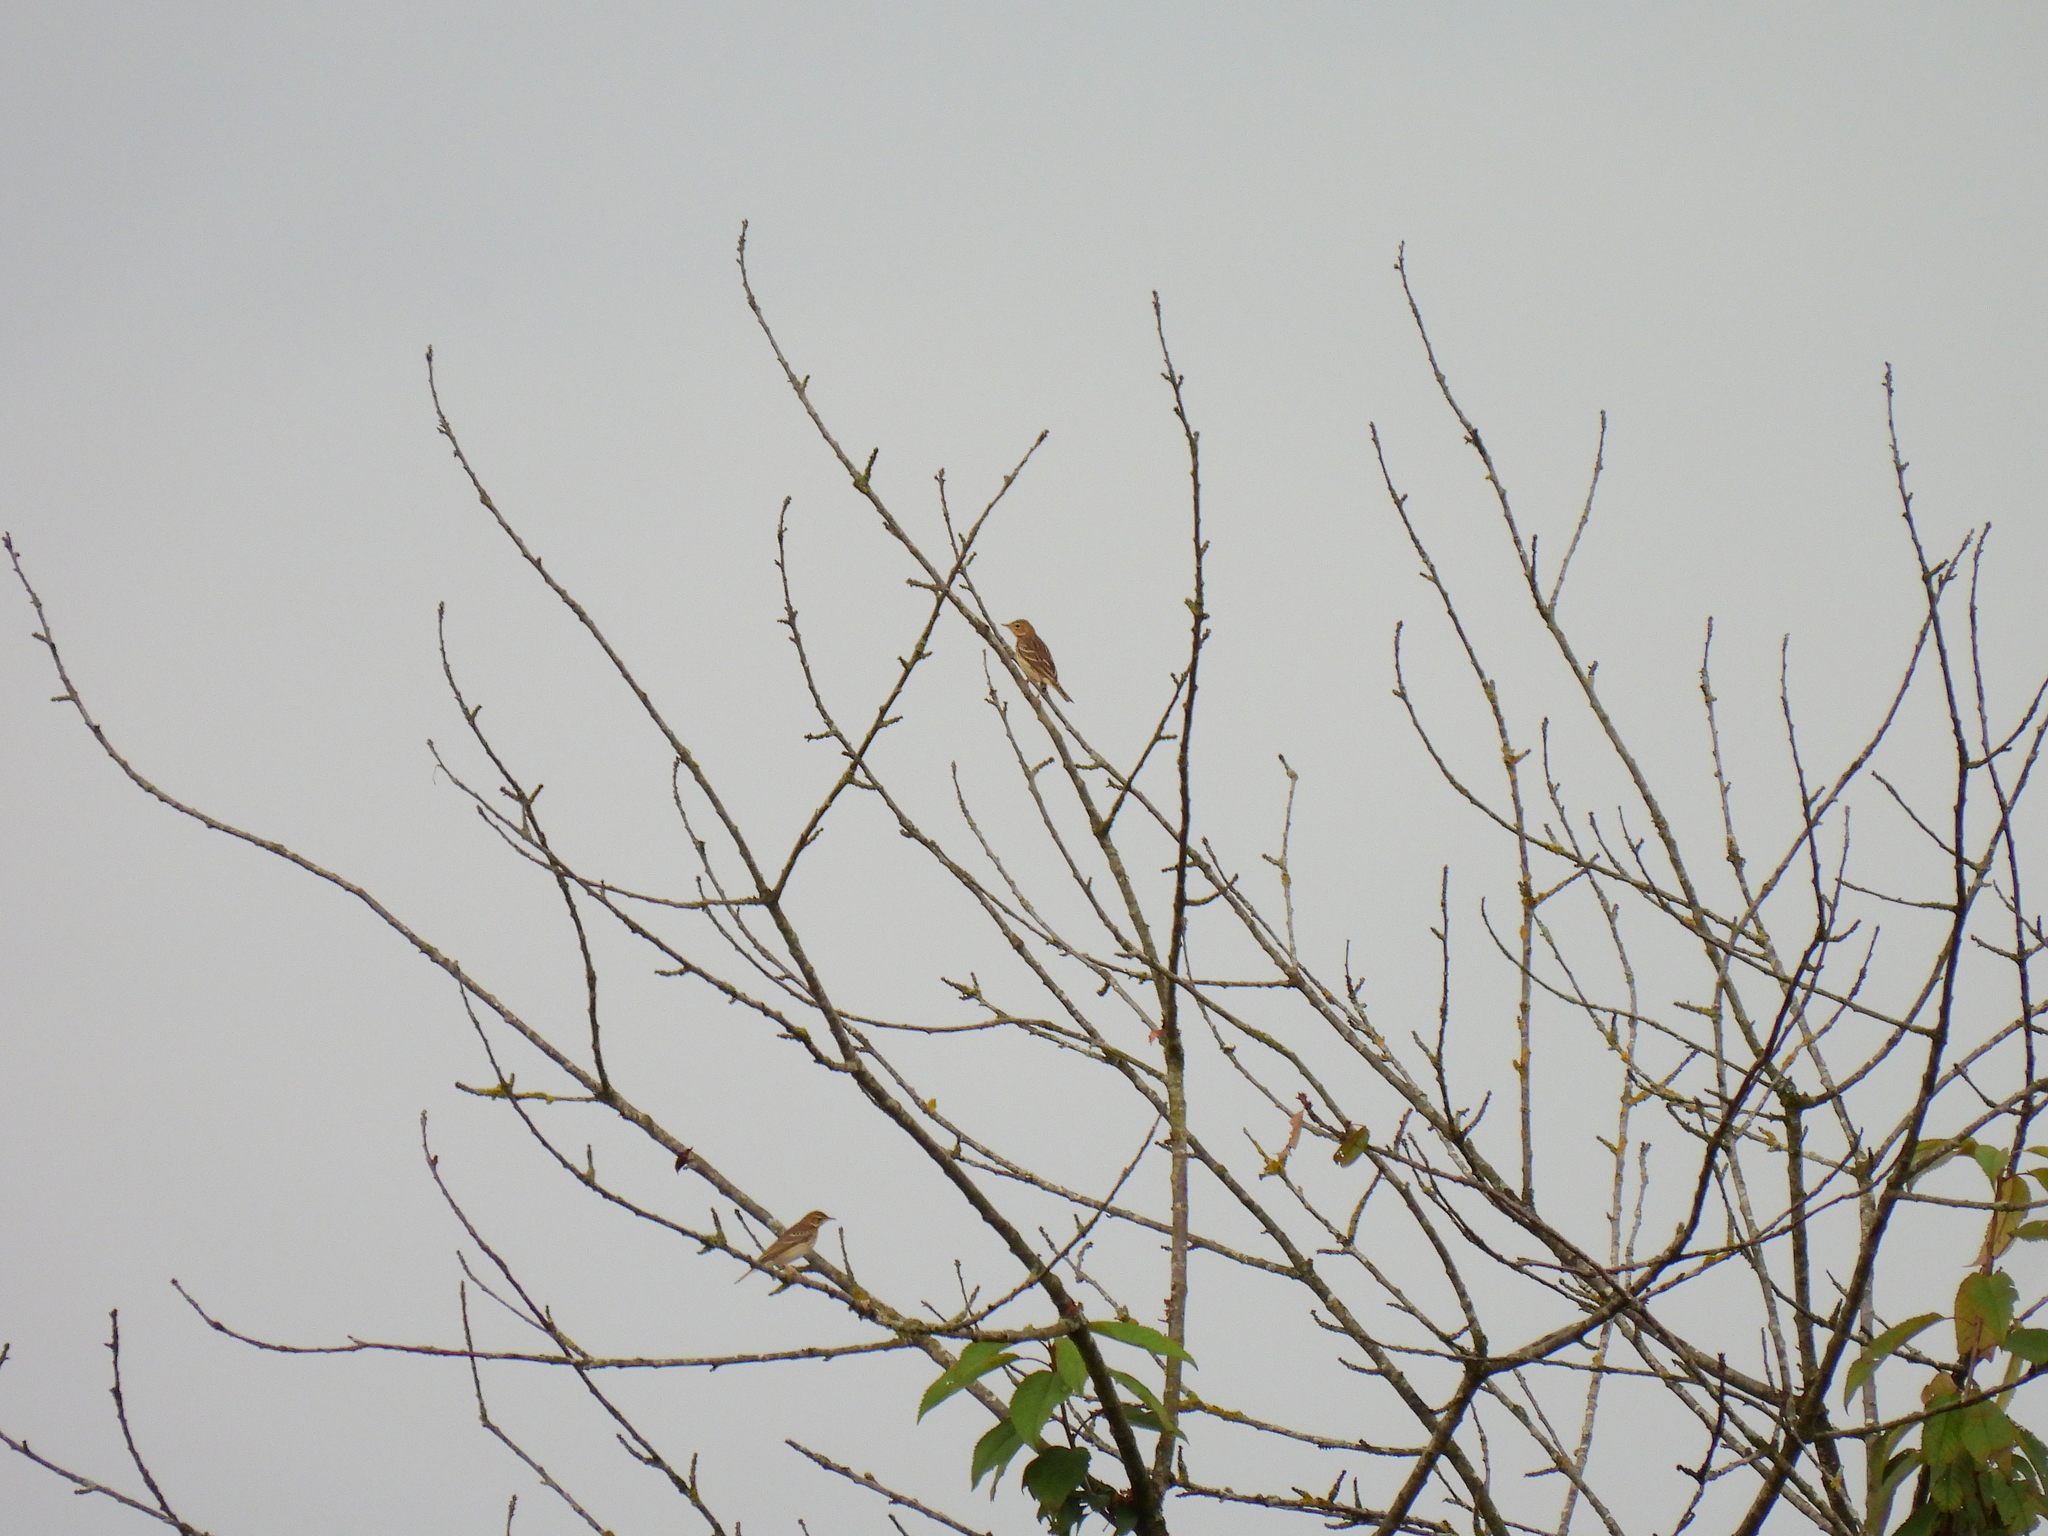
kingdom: Animalia
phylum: Chordata
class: Aves
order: Passeriformes
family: Motacillidae
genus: Anthus
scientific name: Anthus trivialis
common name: Tree pipit
